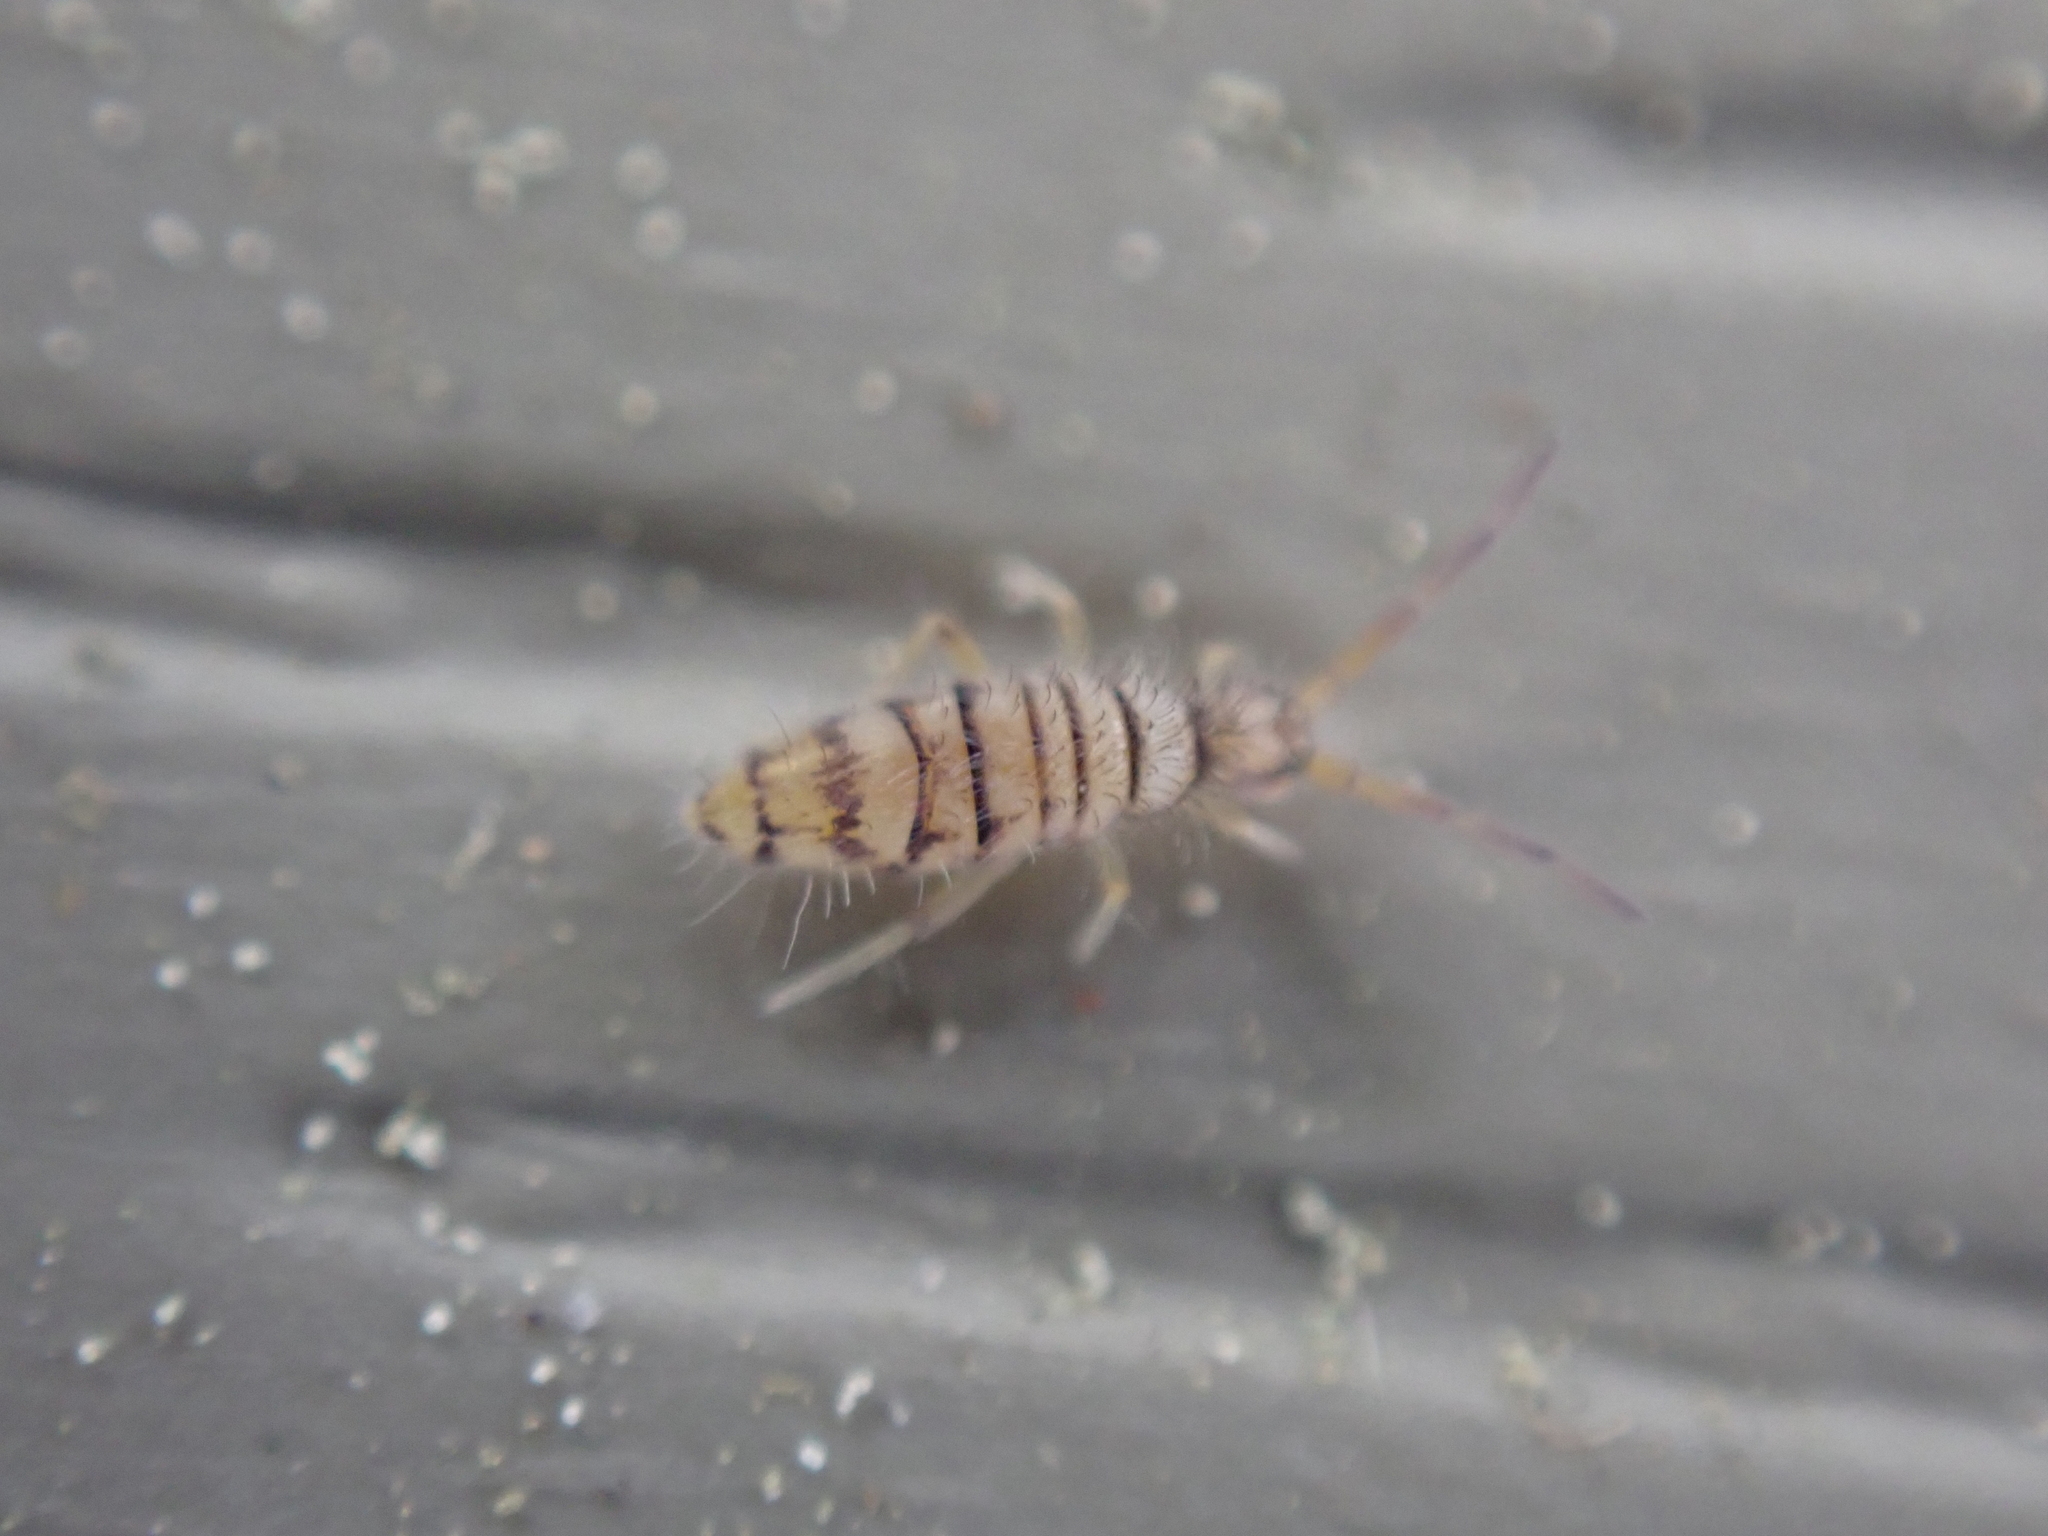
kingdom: Animalia
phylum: Arthropoda
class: Collembola
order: Entomobryomorpha
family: Entomobryidae
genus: Entomobrya
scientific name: Entomobrya atrocincta
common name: Springtail
